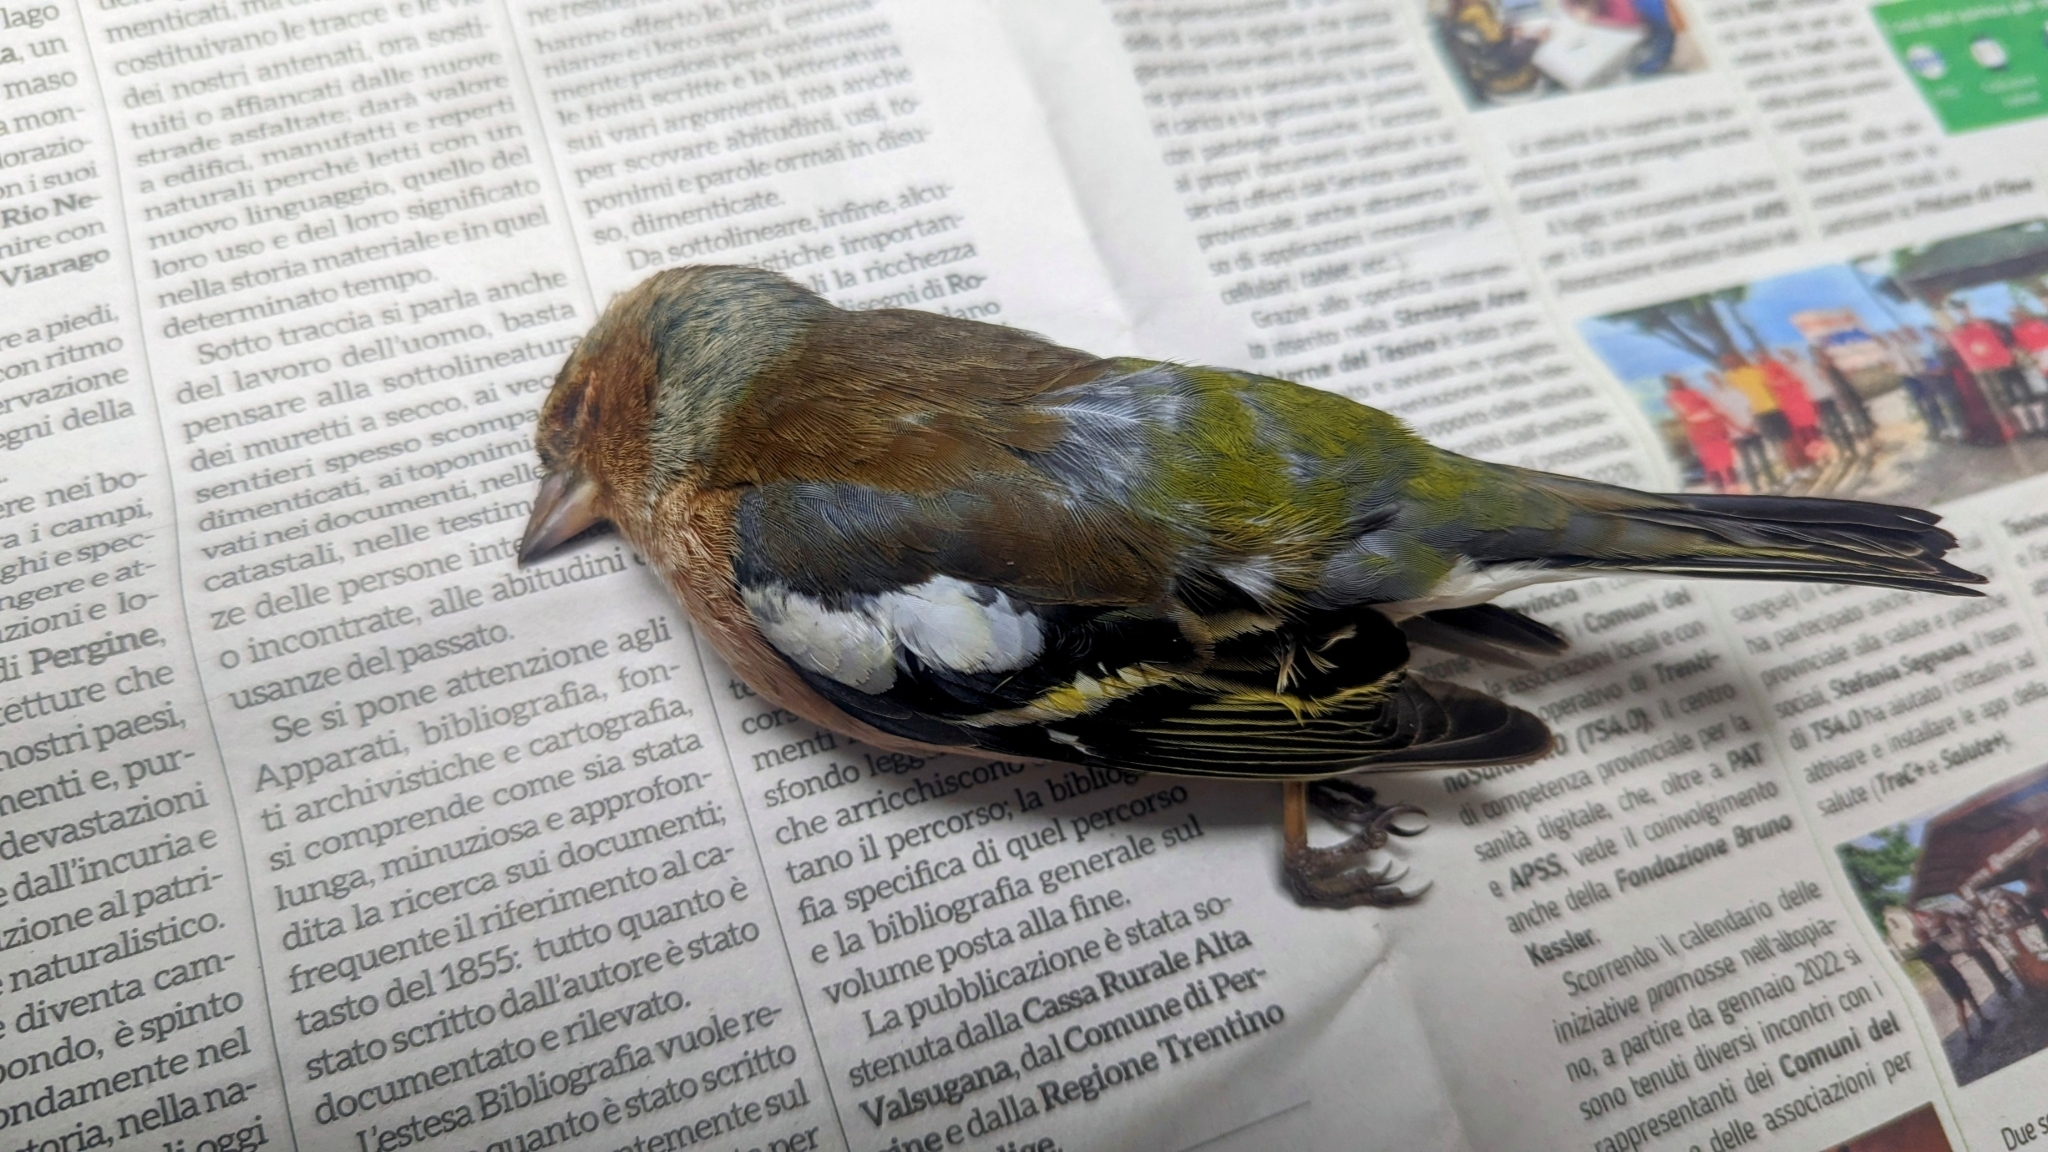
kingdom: Animalia
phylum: Chordata
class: Aves
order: Passeriformes
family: Fringillidae
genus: Fringilla
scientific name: Fringilla coelebs
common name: Common chaffinch
